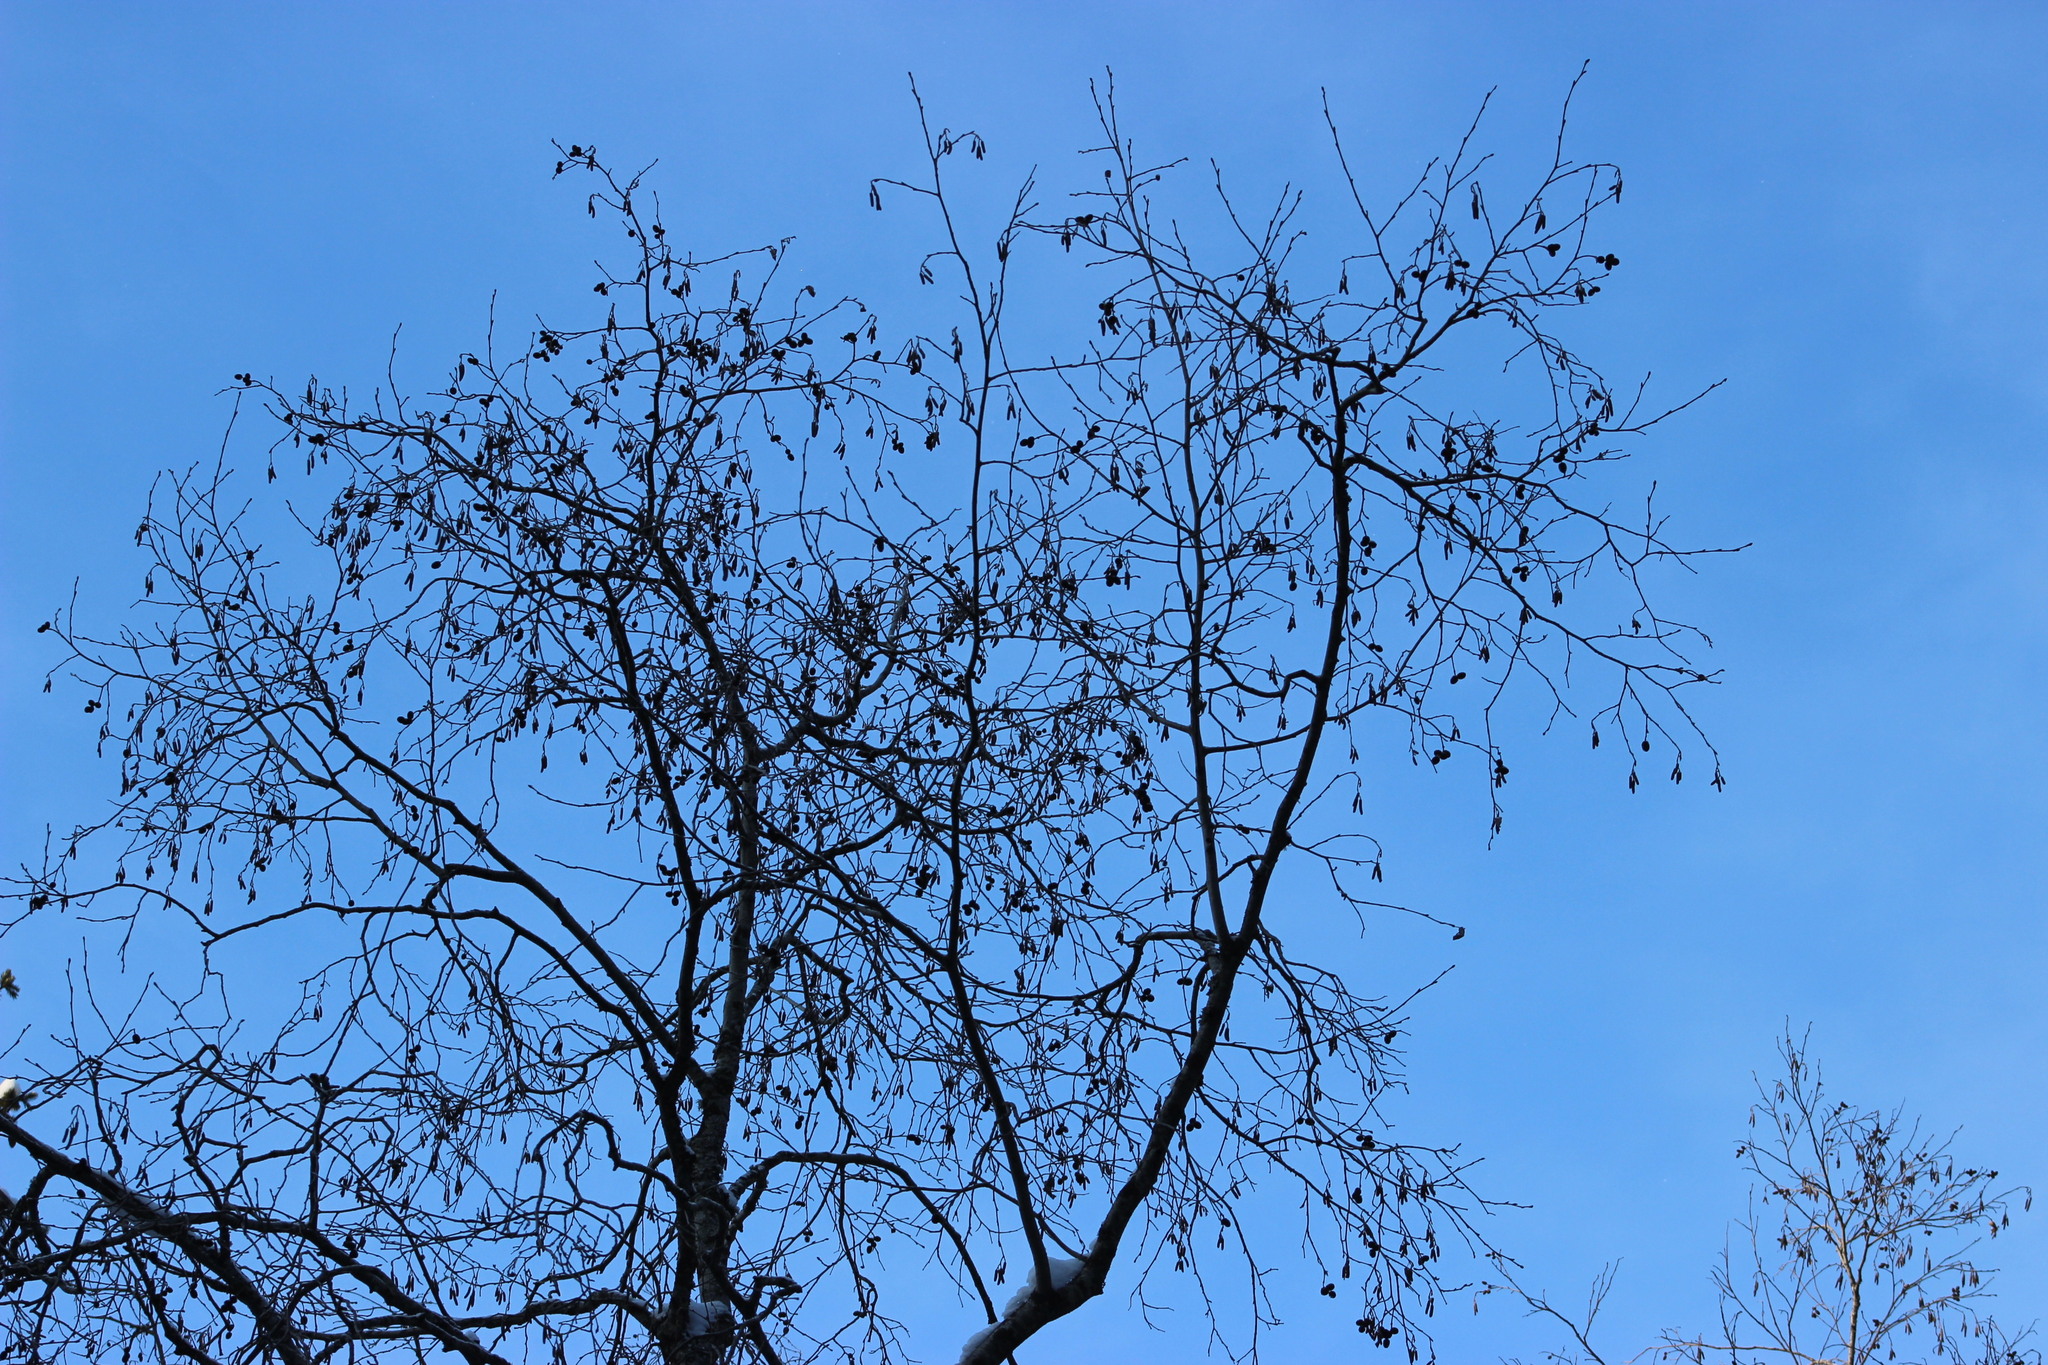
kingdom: Plantae
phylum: Tracheophyta
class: Magnoliopsida
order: Fagales
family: Betulaceae
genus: Alnus
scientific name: Alnus incana
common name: Grey alder
